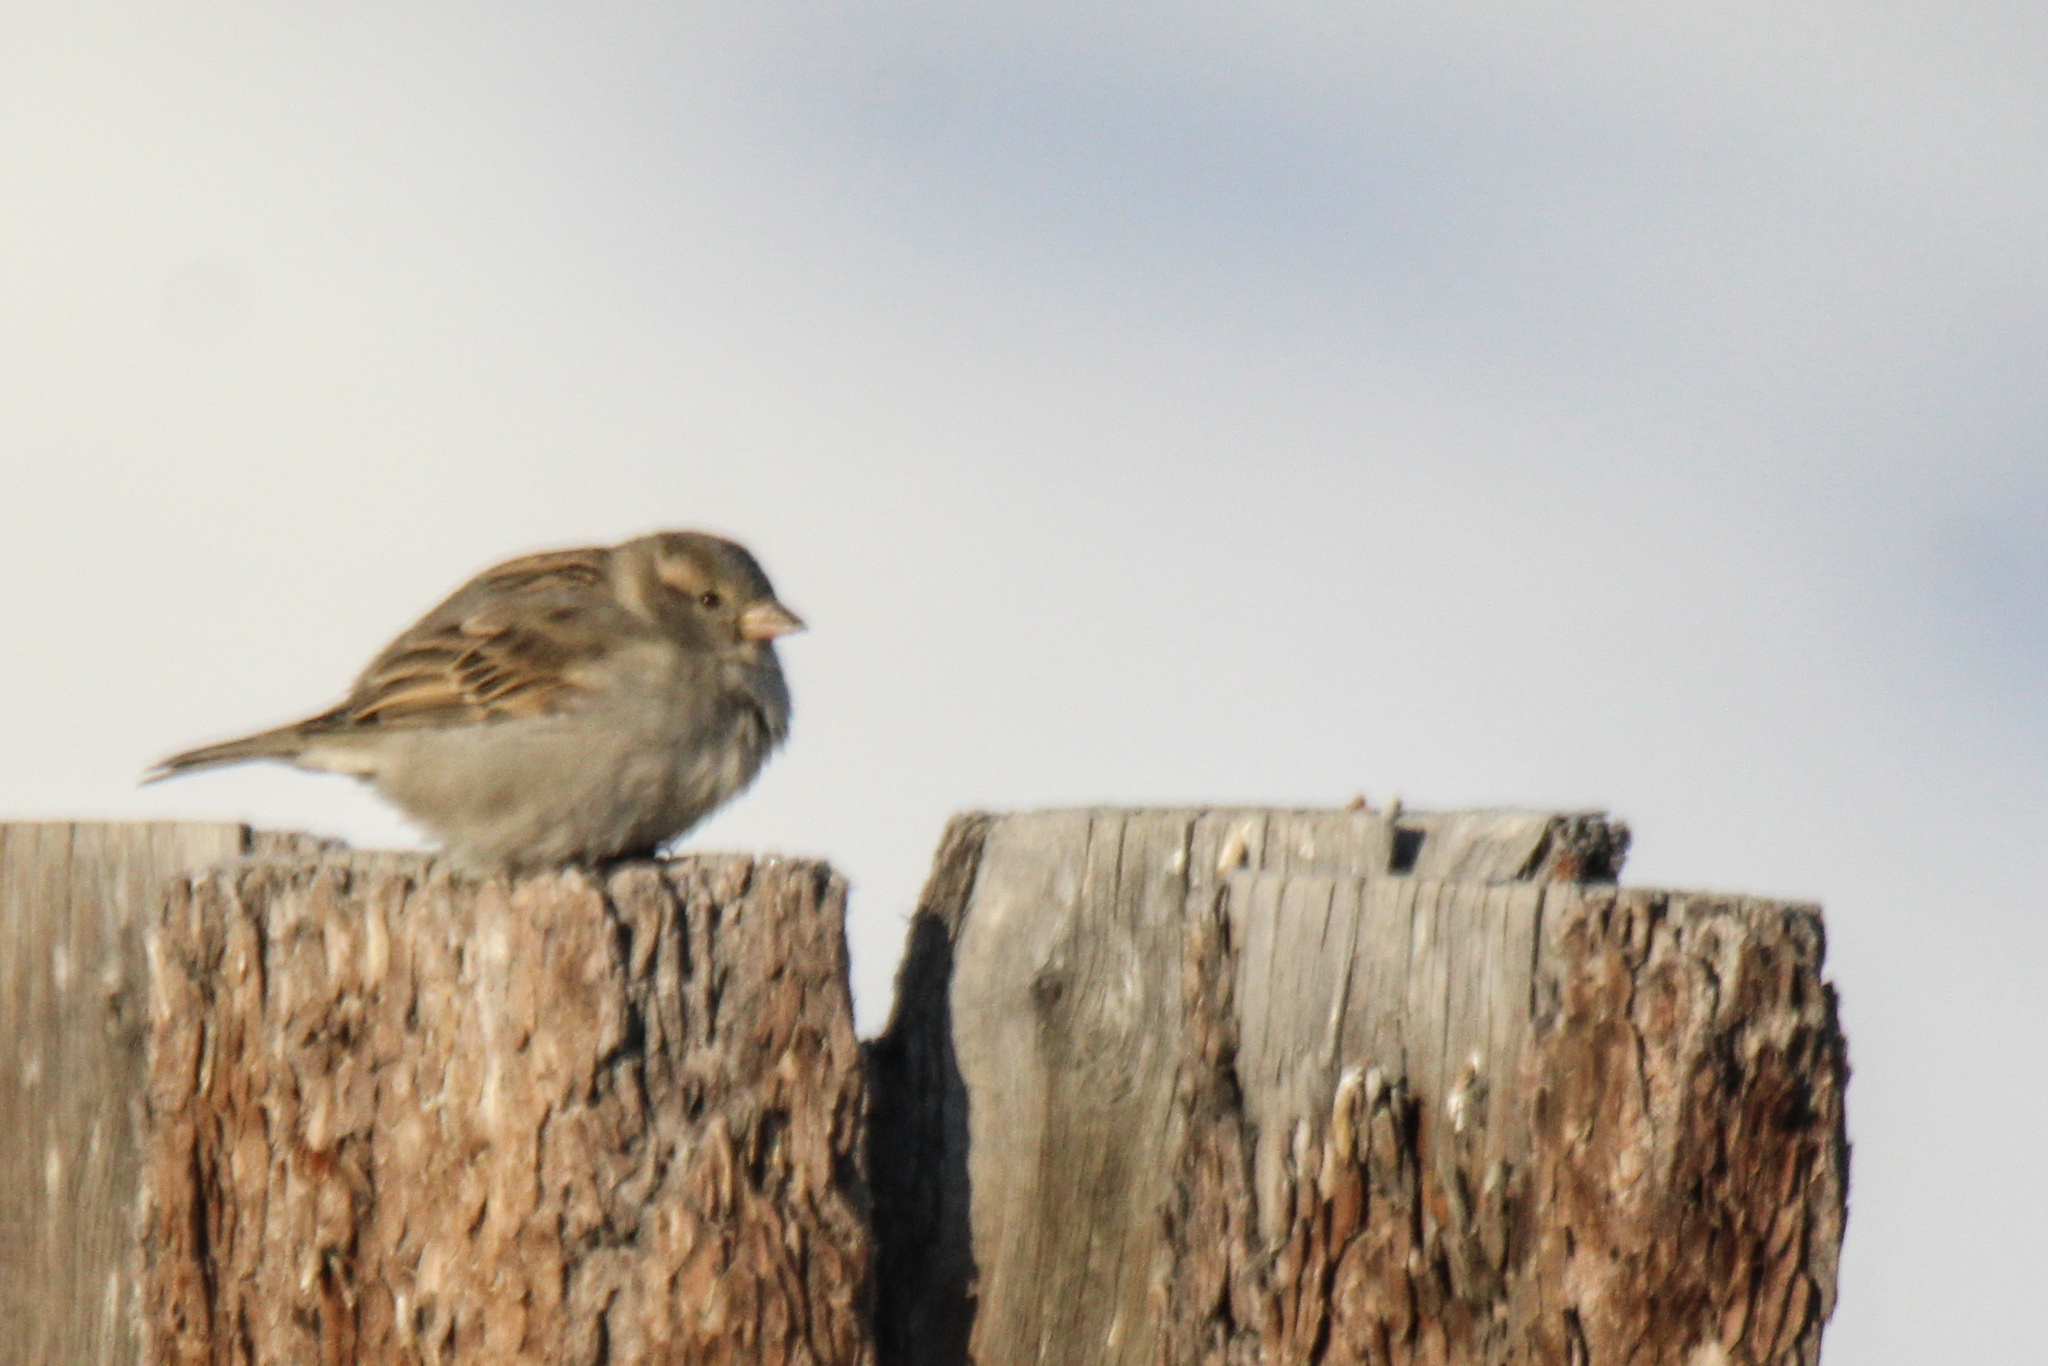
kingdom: Animalia
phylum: Chordata
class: Aves
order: Passeriformes
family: Passeridae
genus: Passer
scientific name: Passer domesticus
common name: House sparrow
